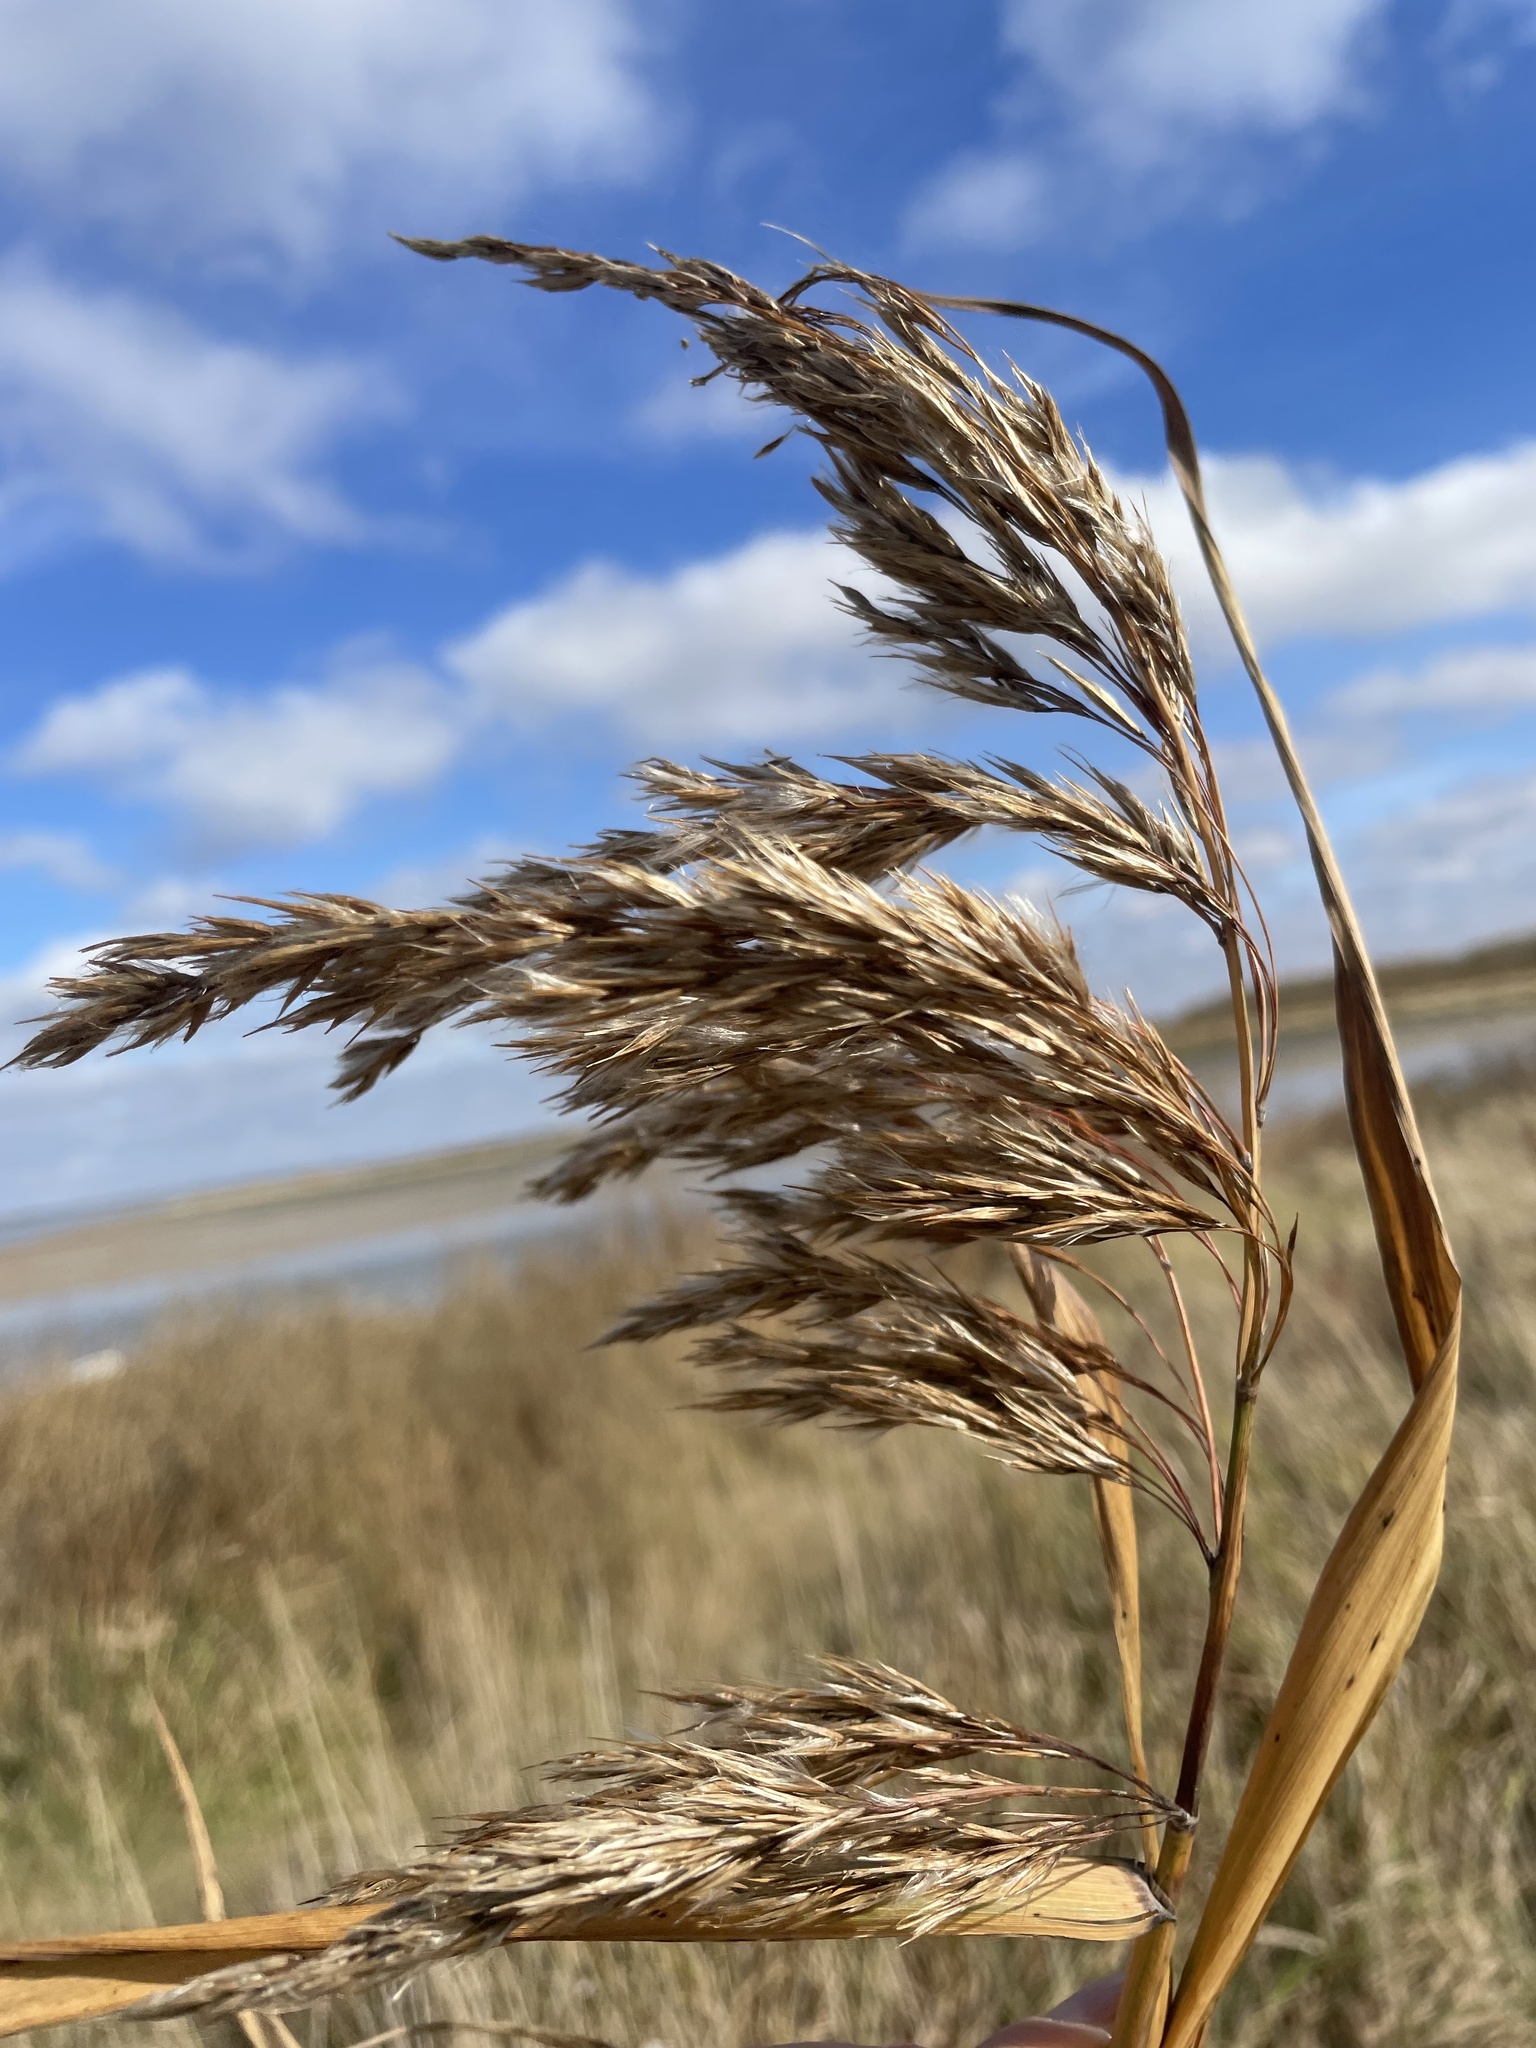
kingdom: Plantae
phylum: Tracheophyta
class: Liliopsida
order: Poales
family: Poaceae
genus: Phragmites
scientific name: Phragmites australis
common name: Common reed
